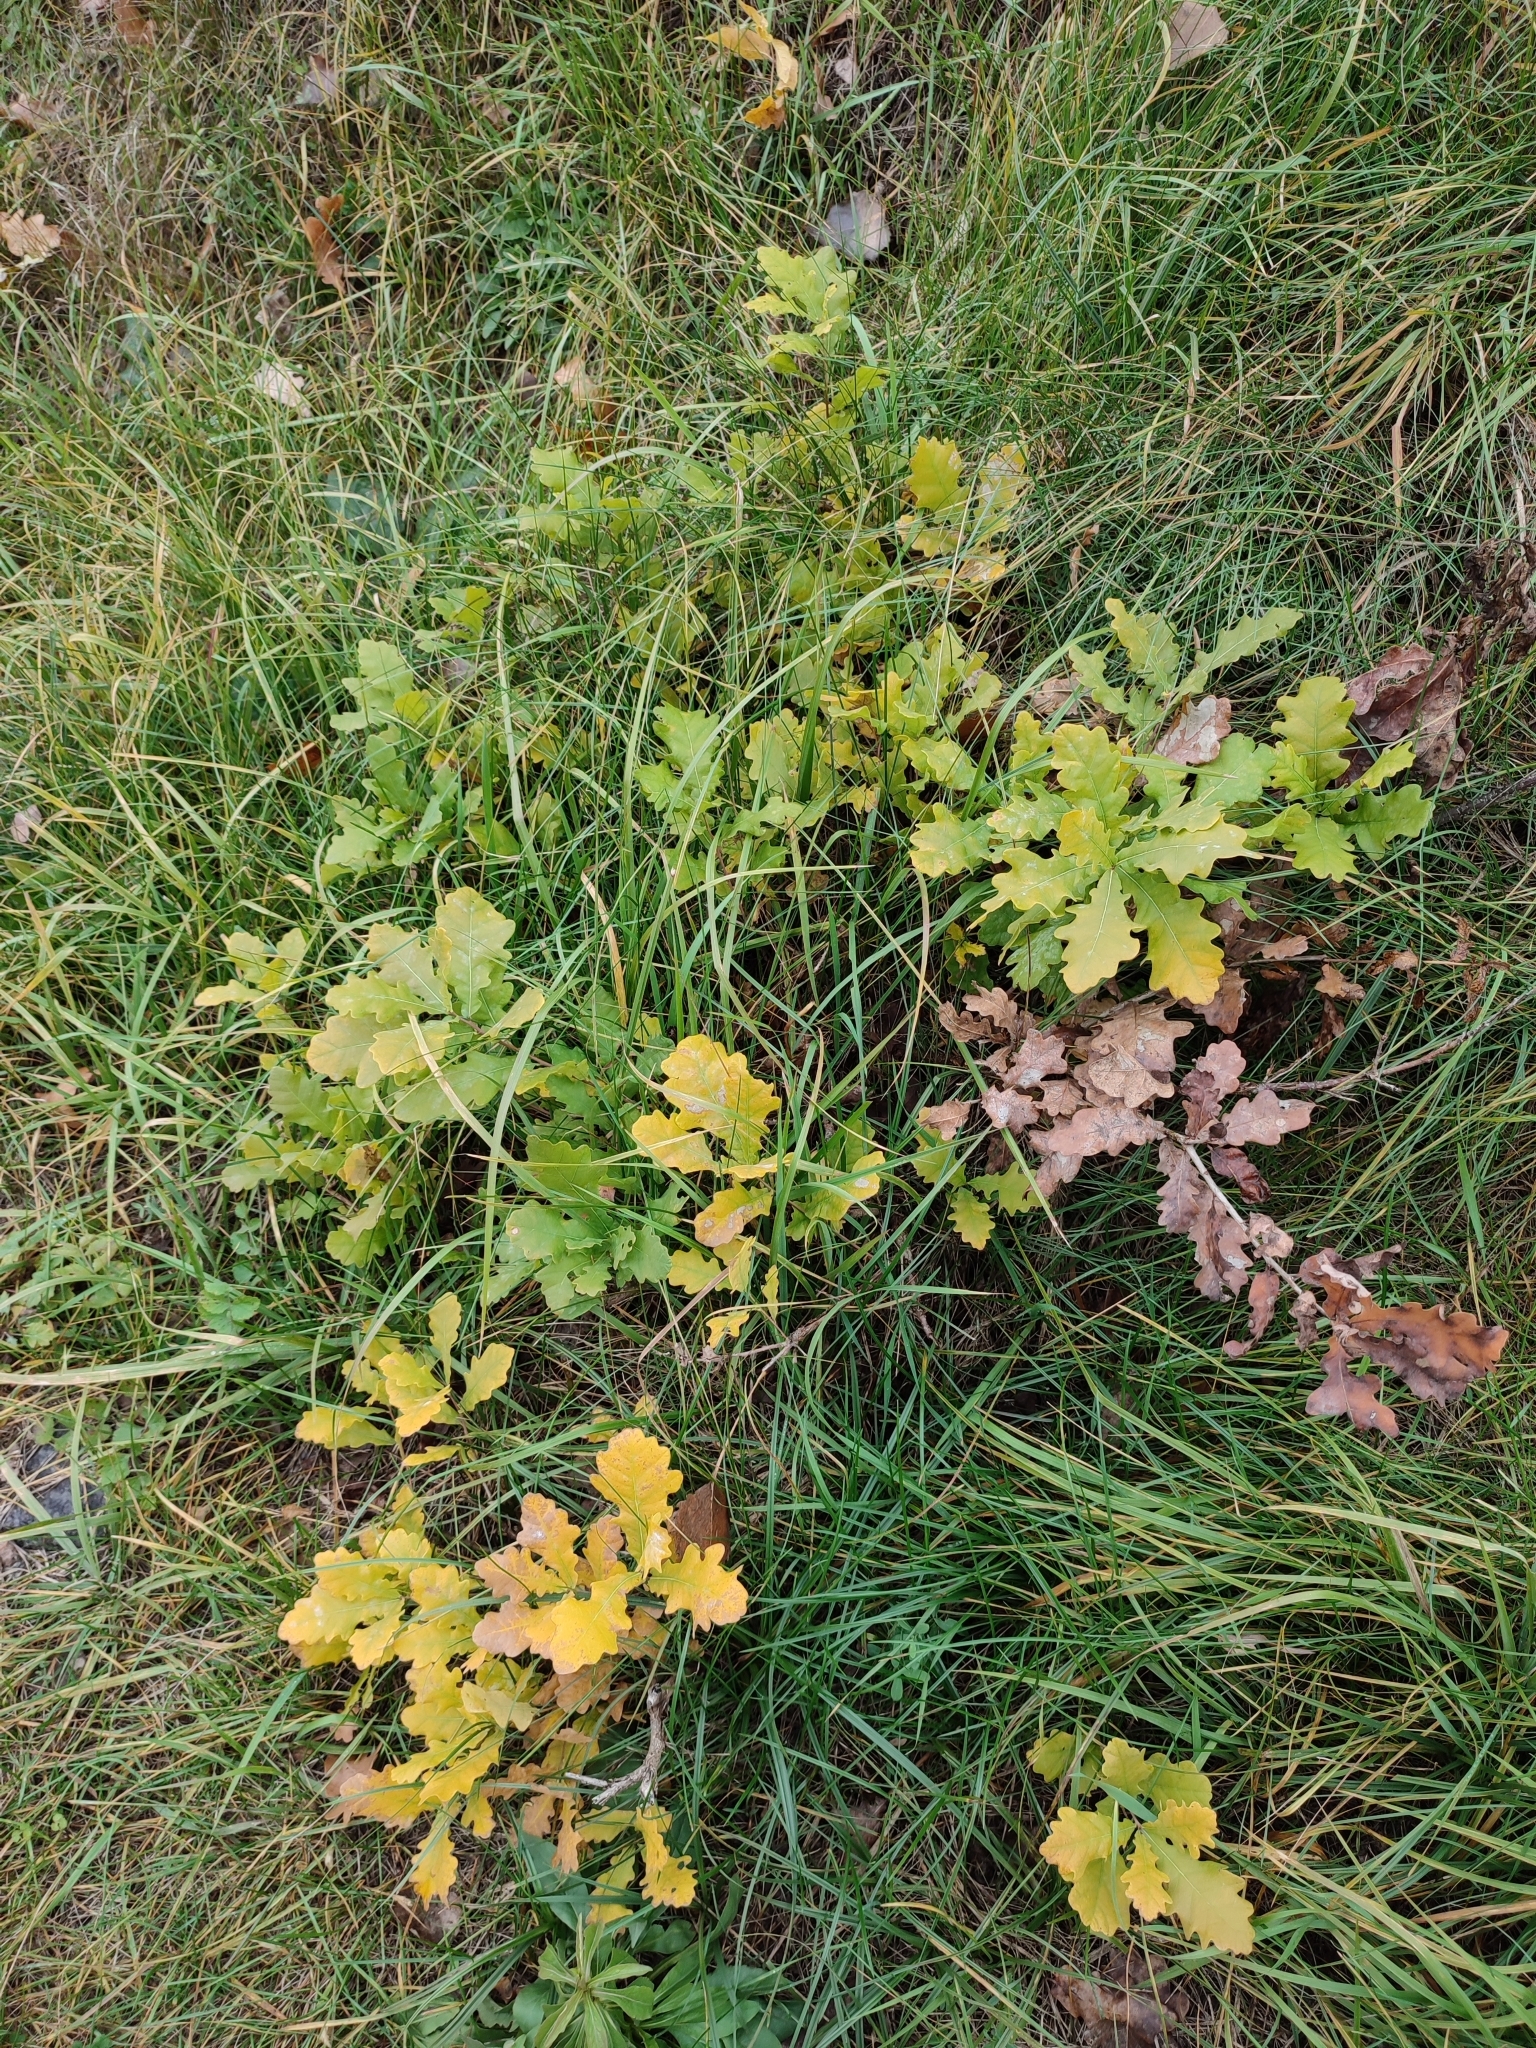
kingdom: Plantae
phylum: Tracheophyta
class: Magnoliopsida
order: Fagales
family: Fagaceae
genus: Quercus
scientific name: Quercus robur
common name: Pedunculate oak
